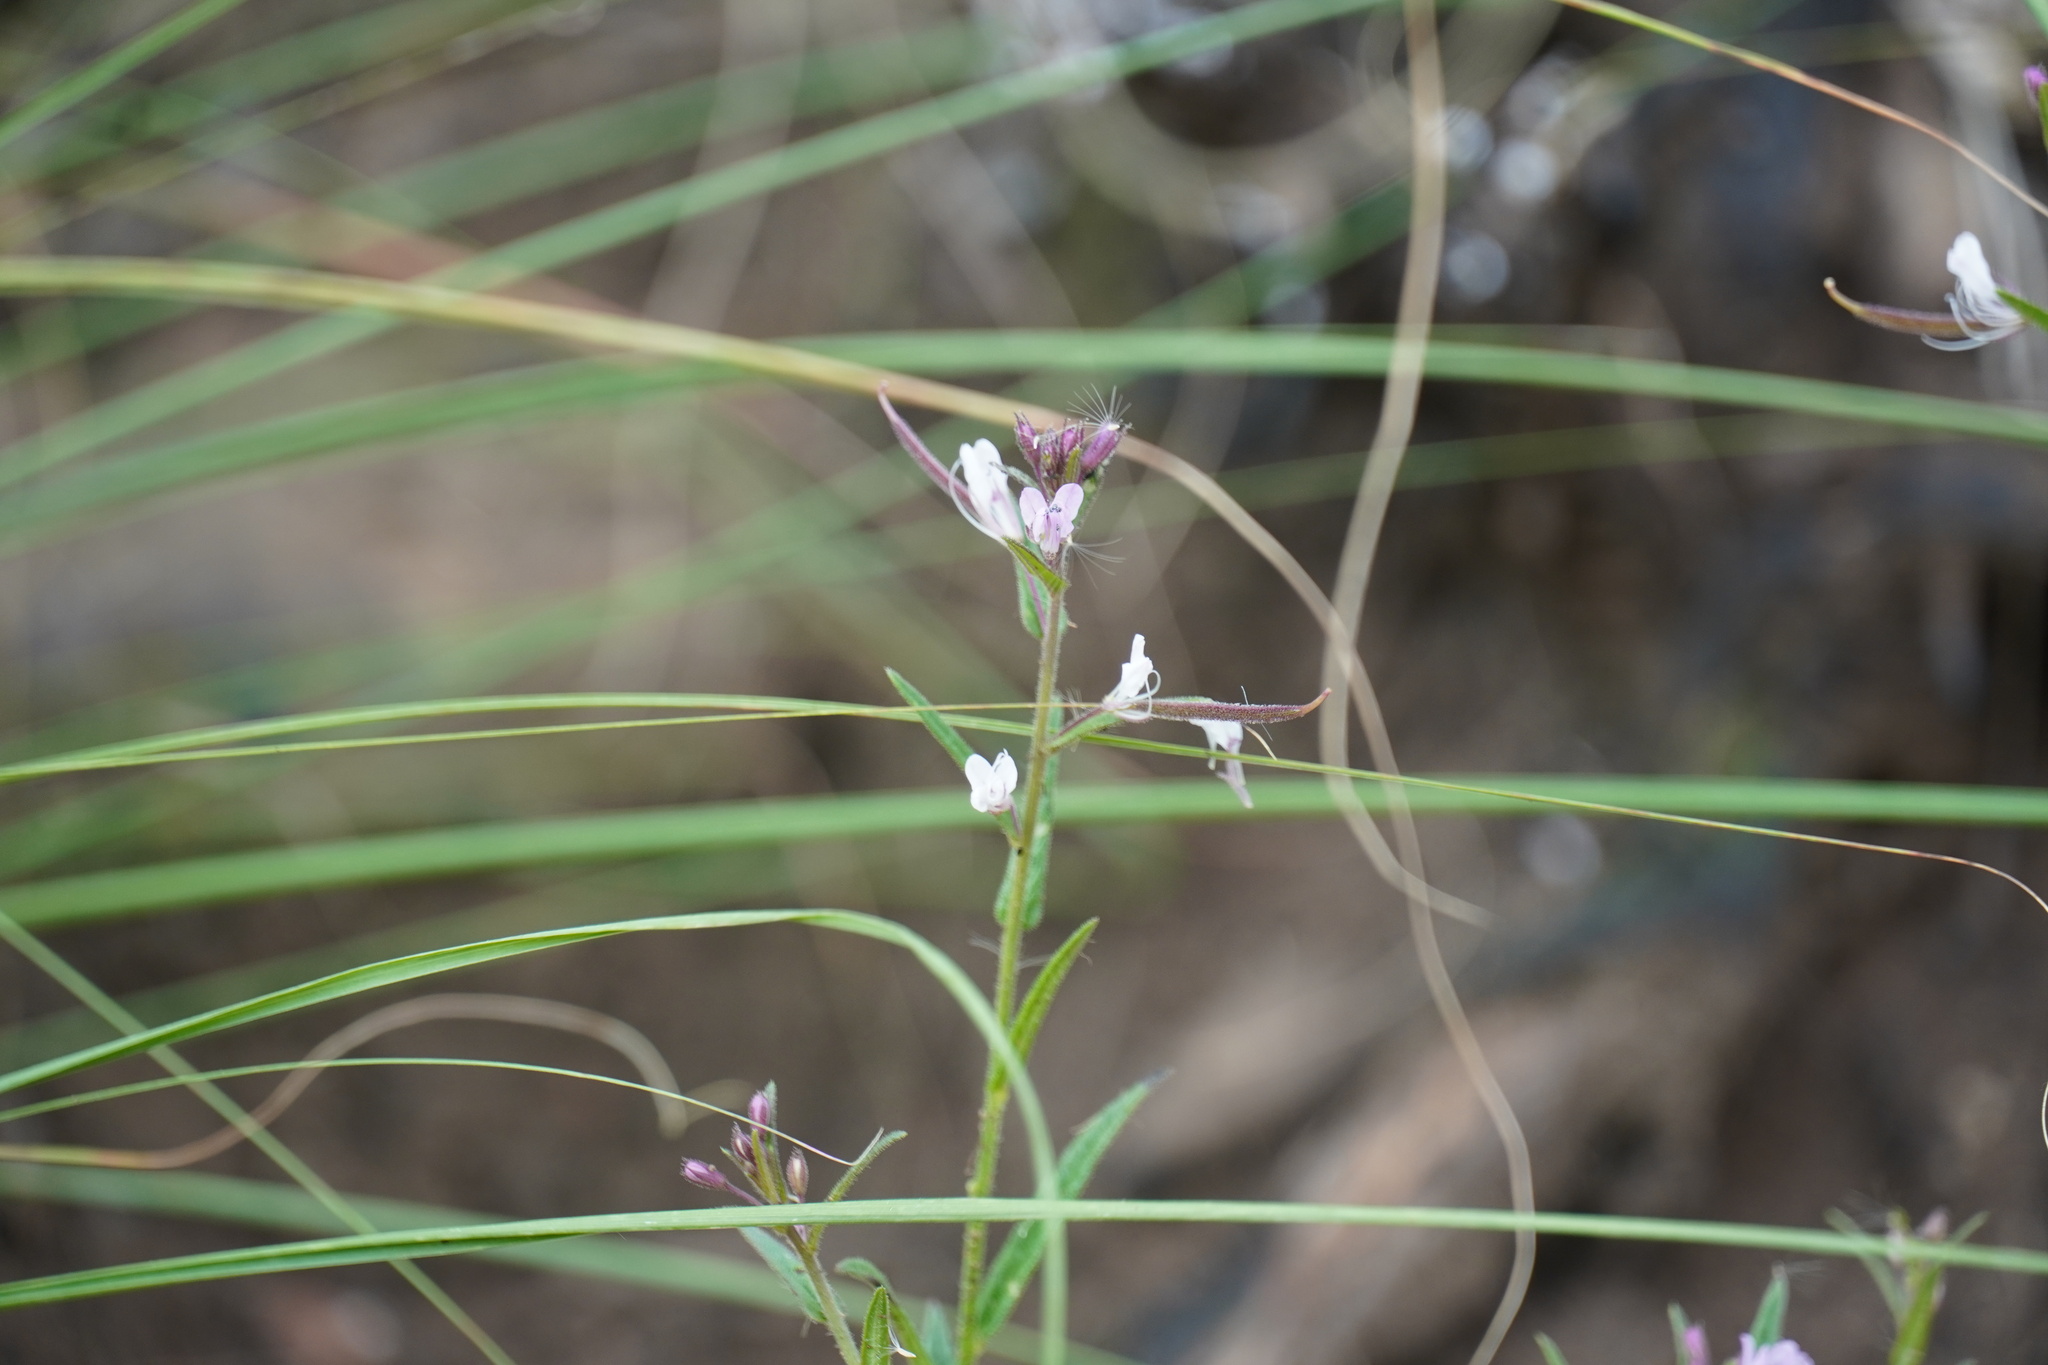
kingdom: Plantae
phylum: Tracheophyta
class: Magnoliopsida
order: Brassicales
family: Cleomaceae
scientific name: Cleomaceae
